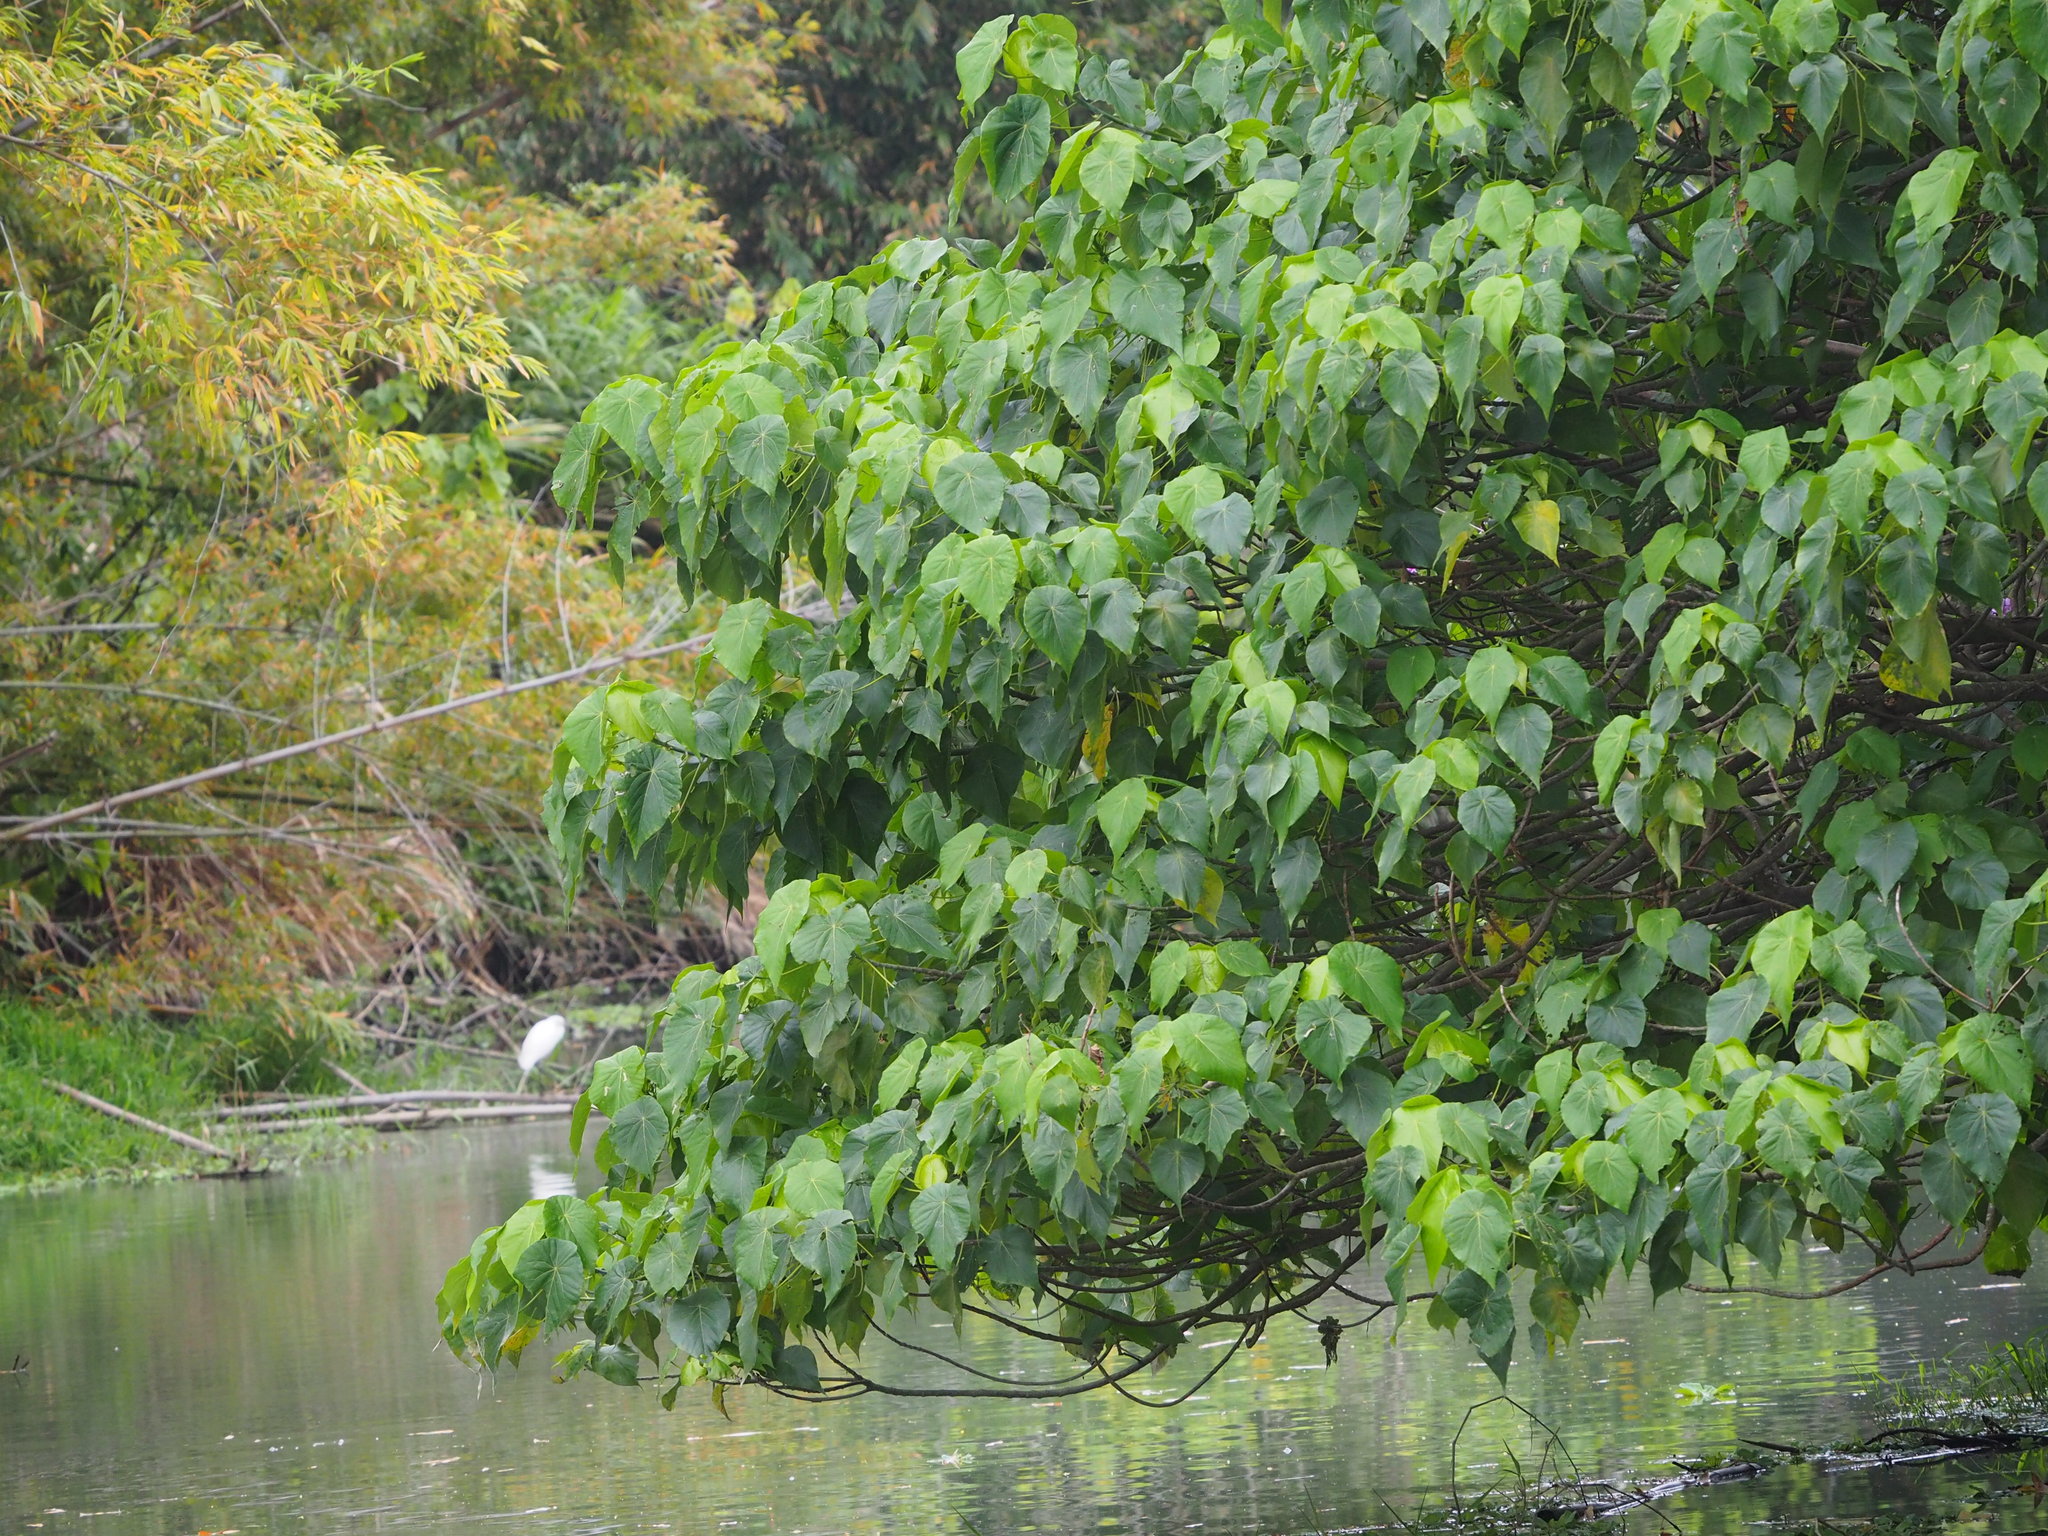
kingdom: Plantae
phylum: Tracheophyta
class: Magnoliopsida
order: Malpighiales
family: Euphorbiaceae
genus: Macaranga
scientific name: Macaranga tanarius
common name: Parasol leaf tree
